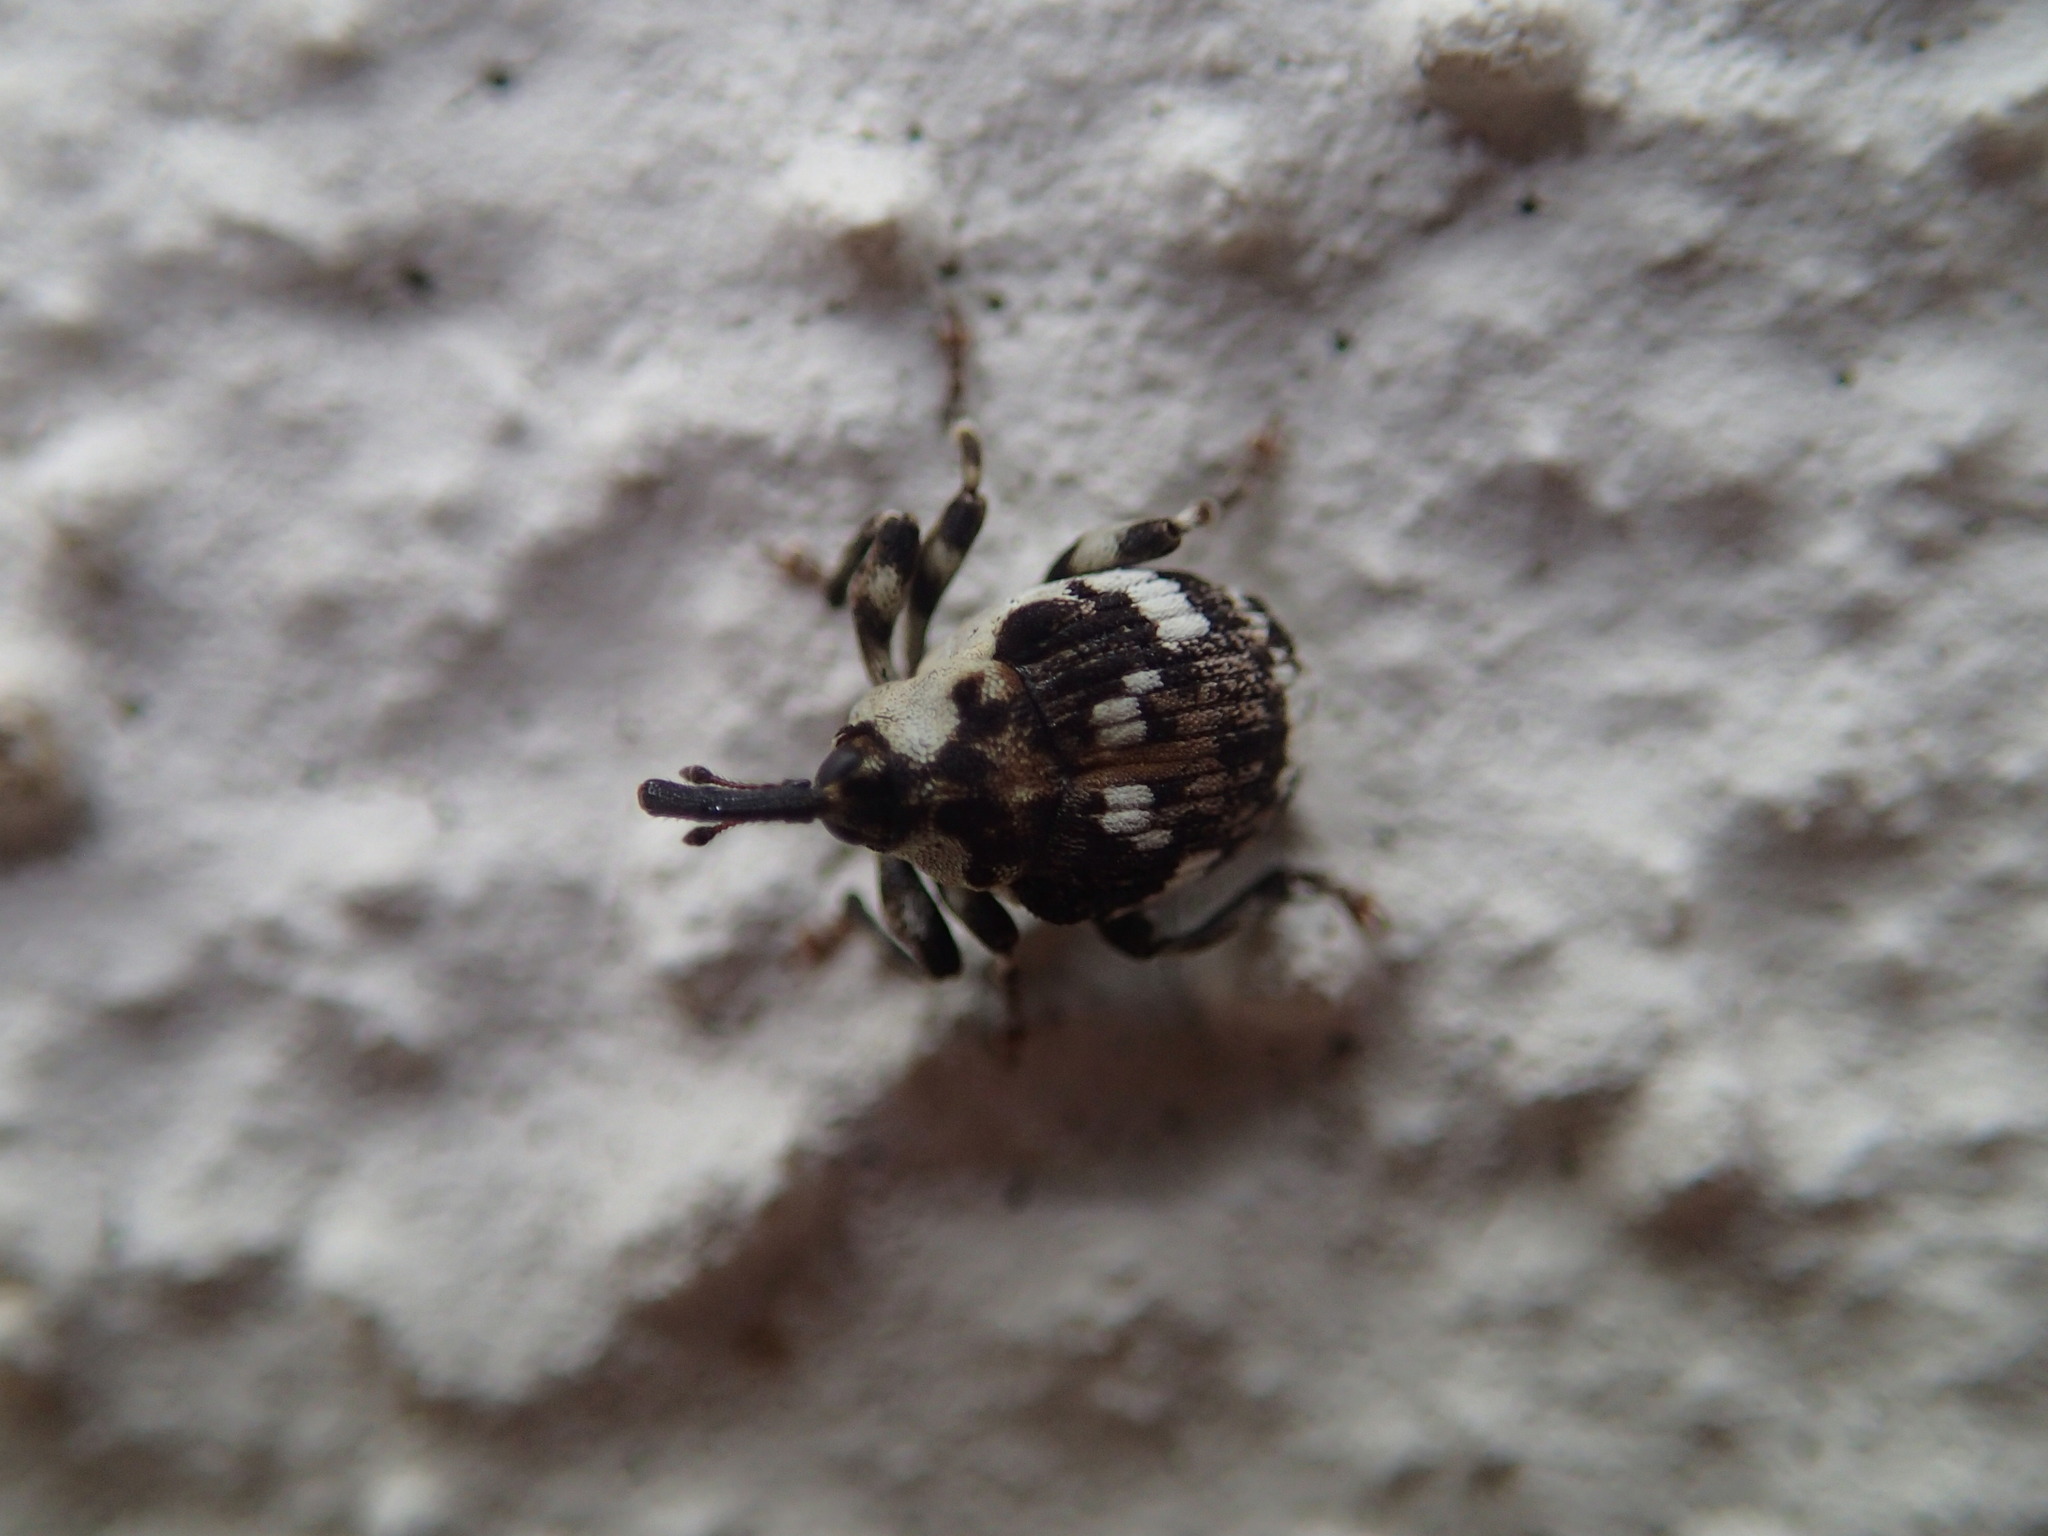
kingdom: Animalia
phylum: Arthropoda
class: Insecta
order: Coleoptera
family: Curculionidae
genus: Hadroplontus
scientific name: Hadroplontus trimaculatus
